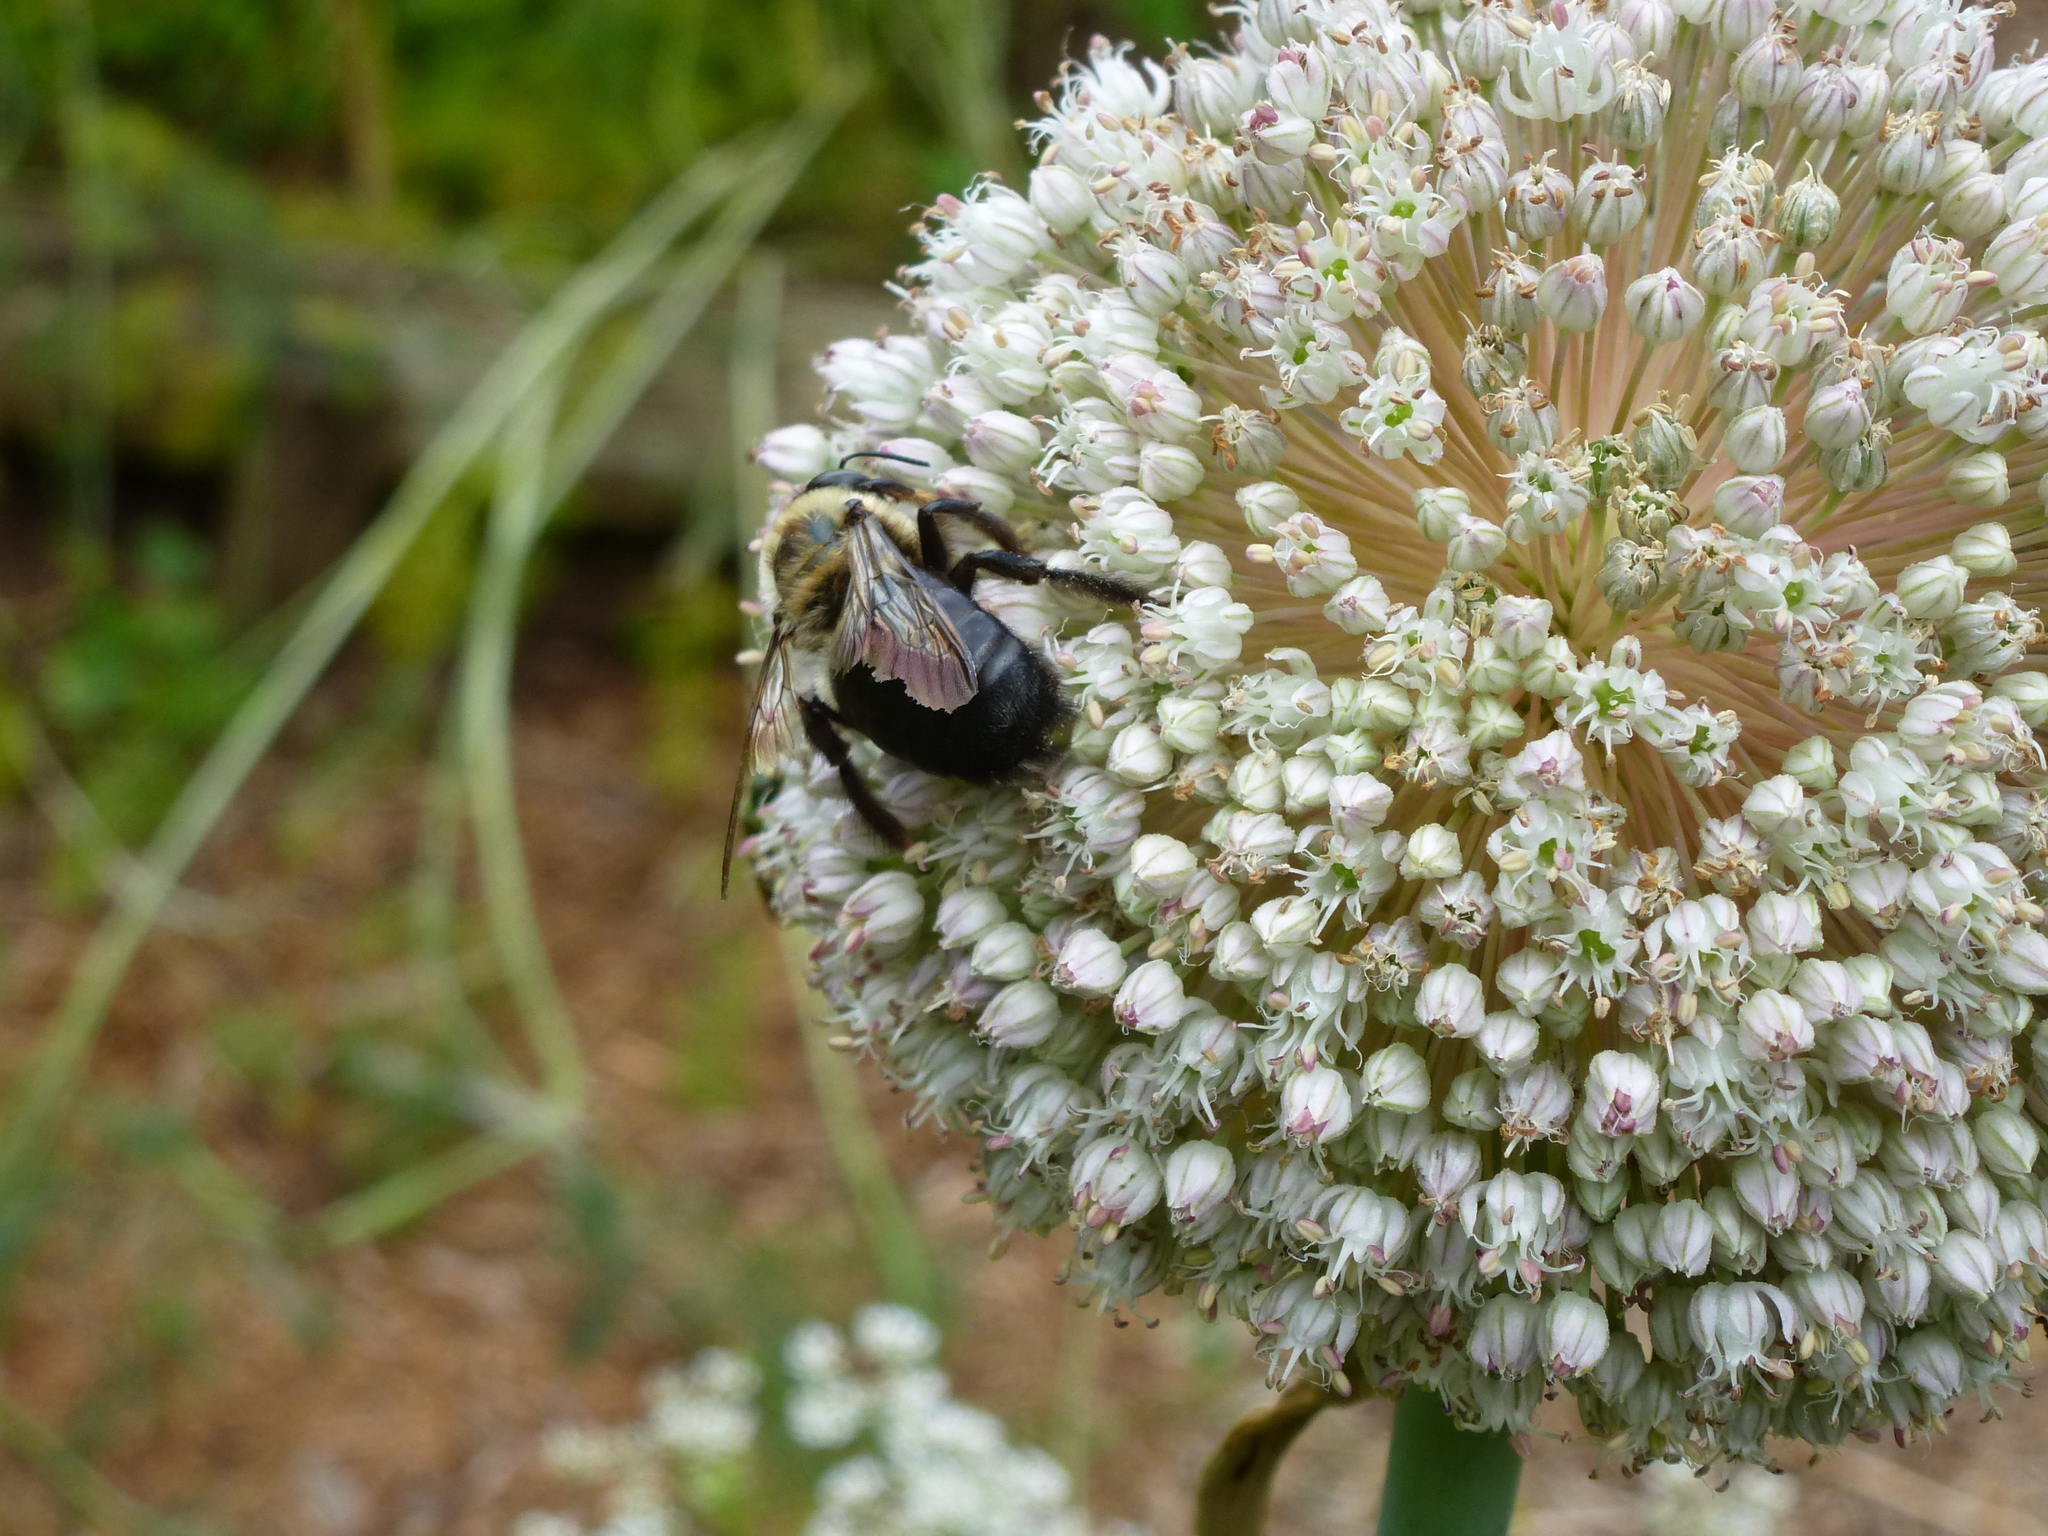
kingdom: Animalia
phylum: Arthropoda
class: Insecta
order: Hymenoptera
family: Apidae
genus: Xylocopa
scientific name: Xylocopa virginica
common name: Carpenter bee
